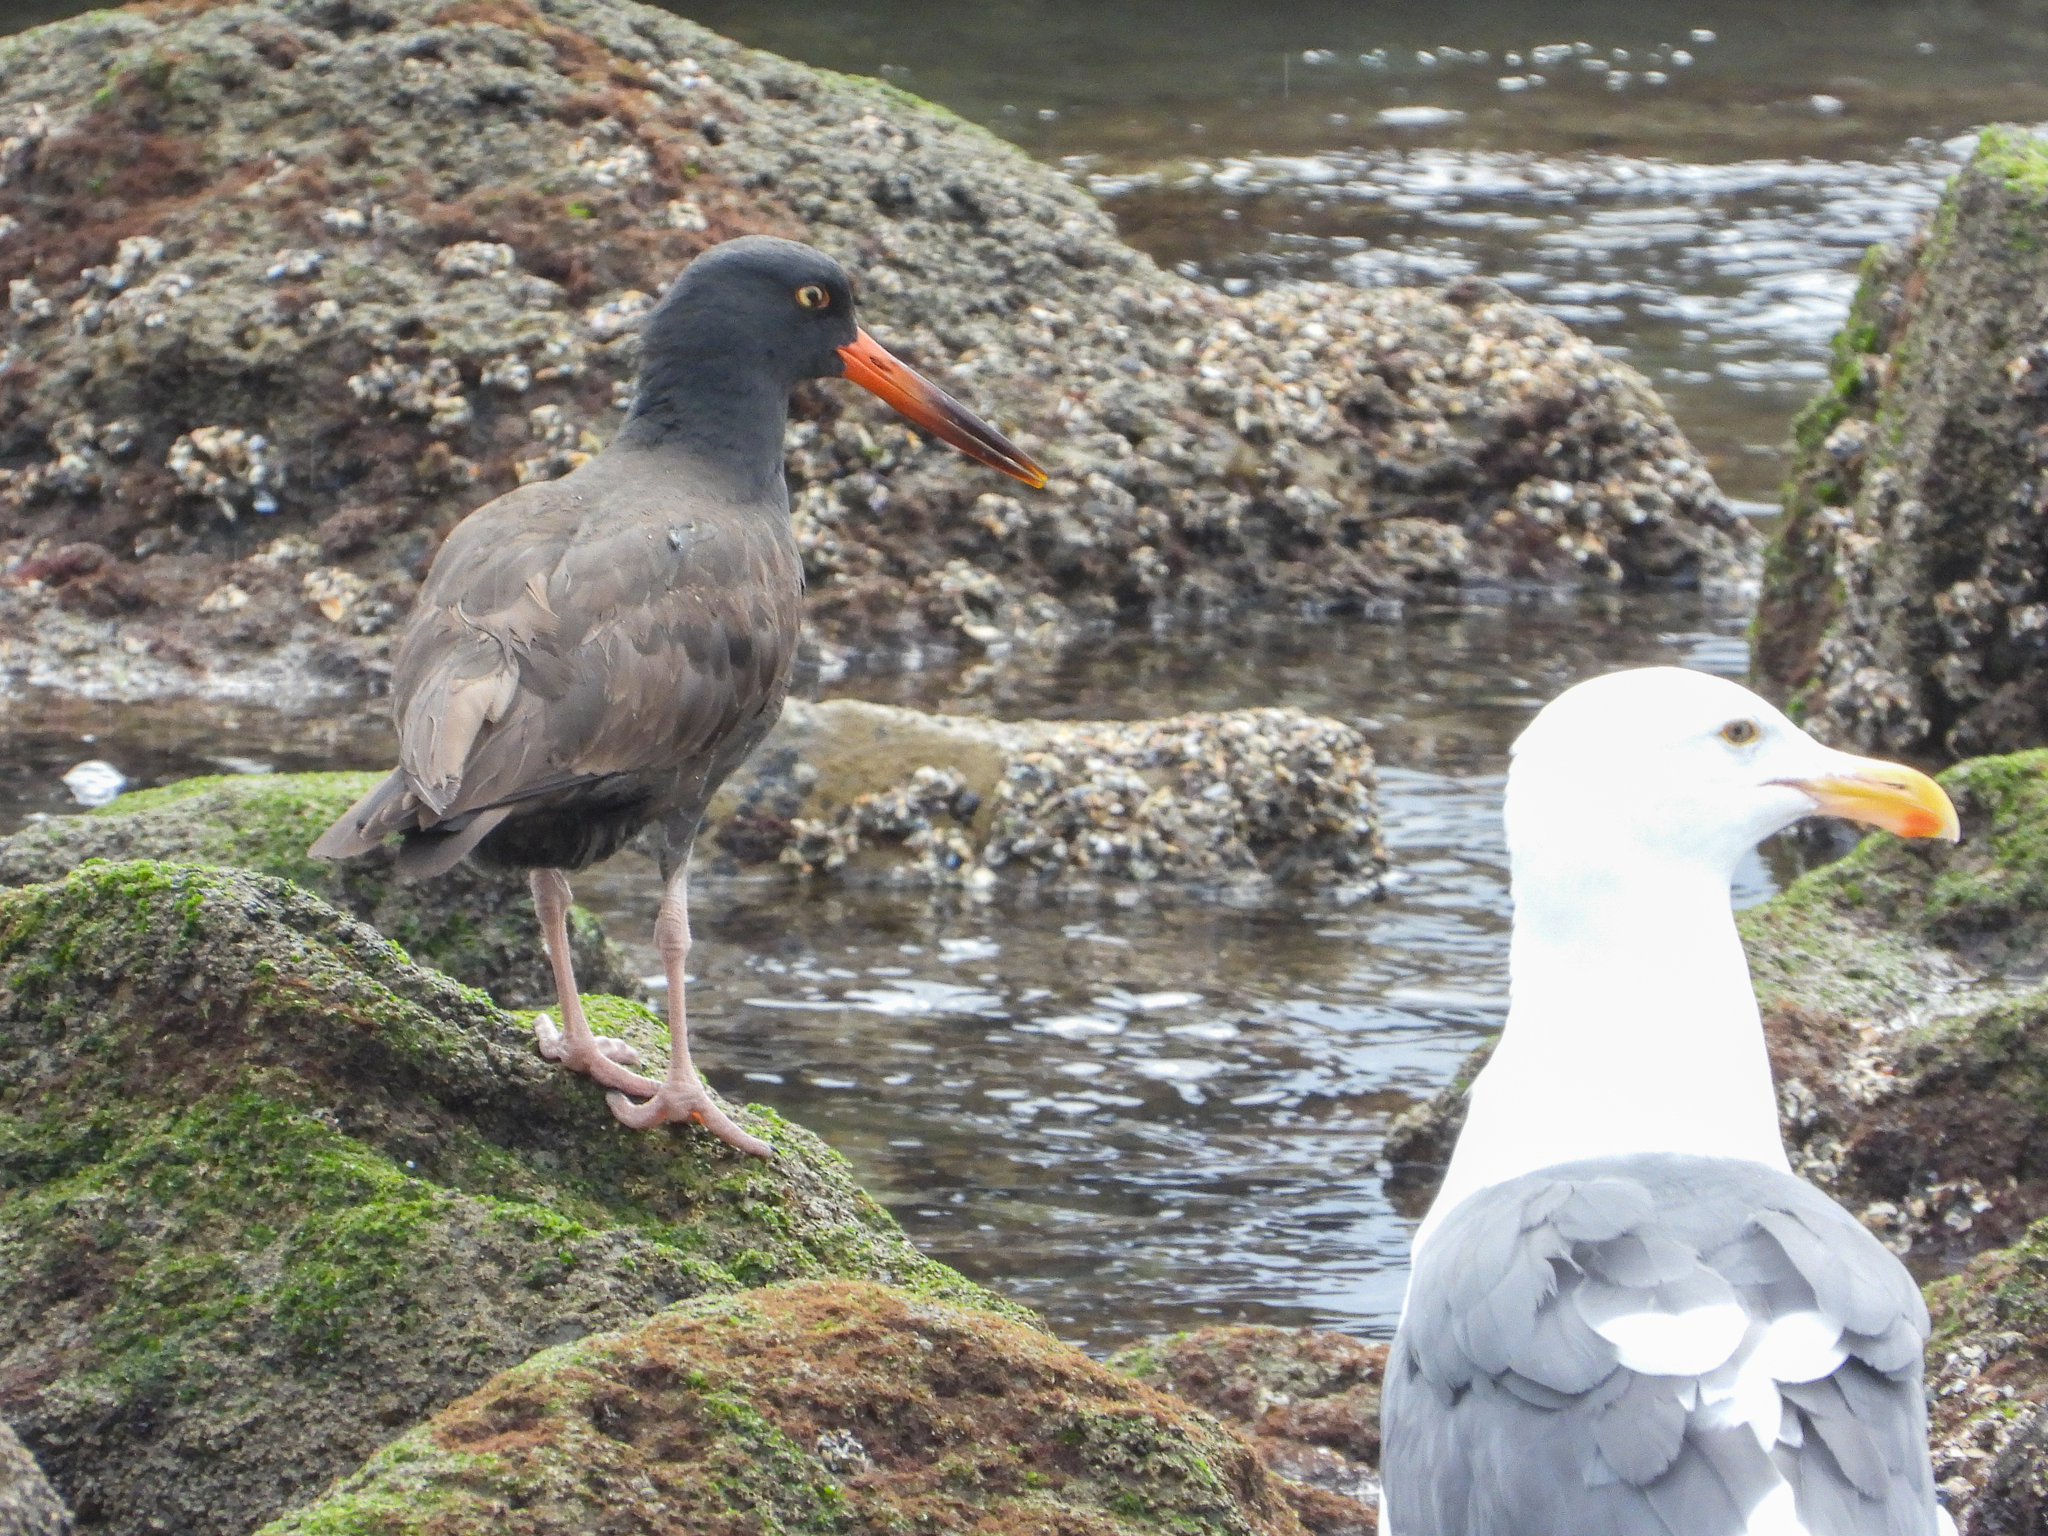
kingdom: Animalia
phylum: Chordata
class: Aves
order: Charadriiformes
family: Haematopodidae
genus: Haematopus
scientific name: Haematopus bachmani
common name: Black oystercatcher
